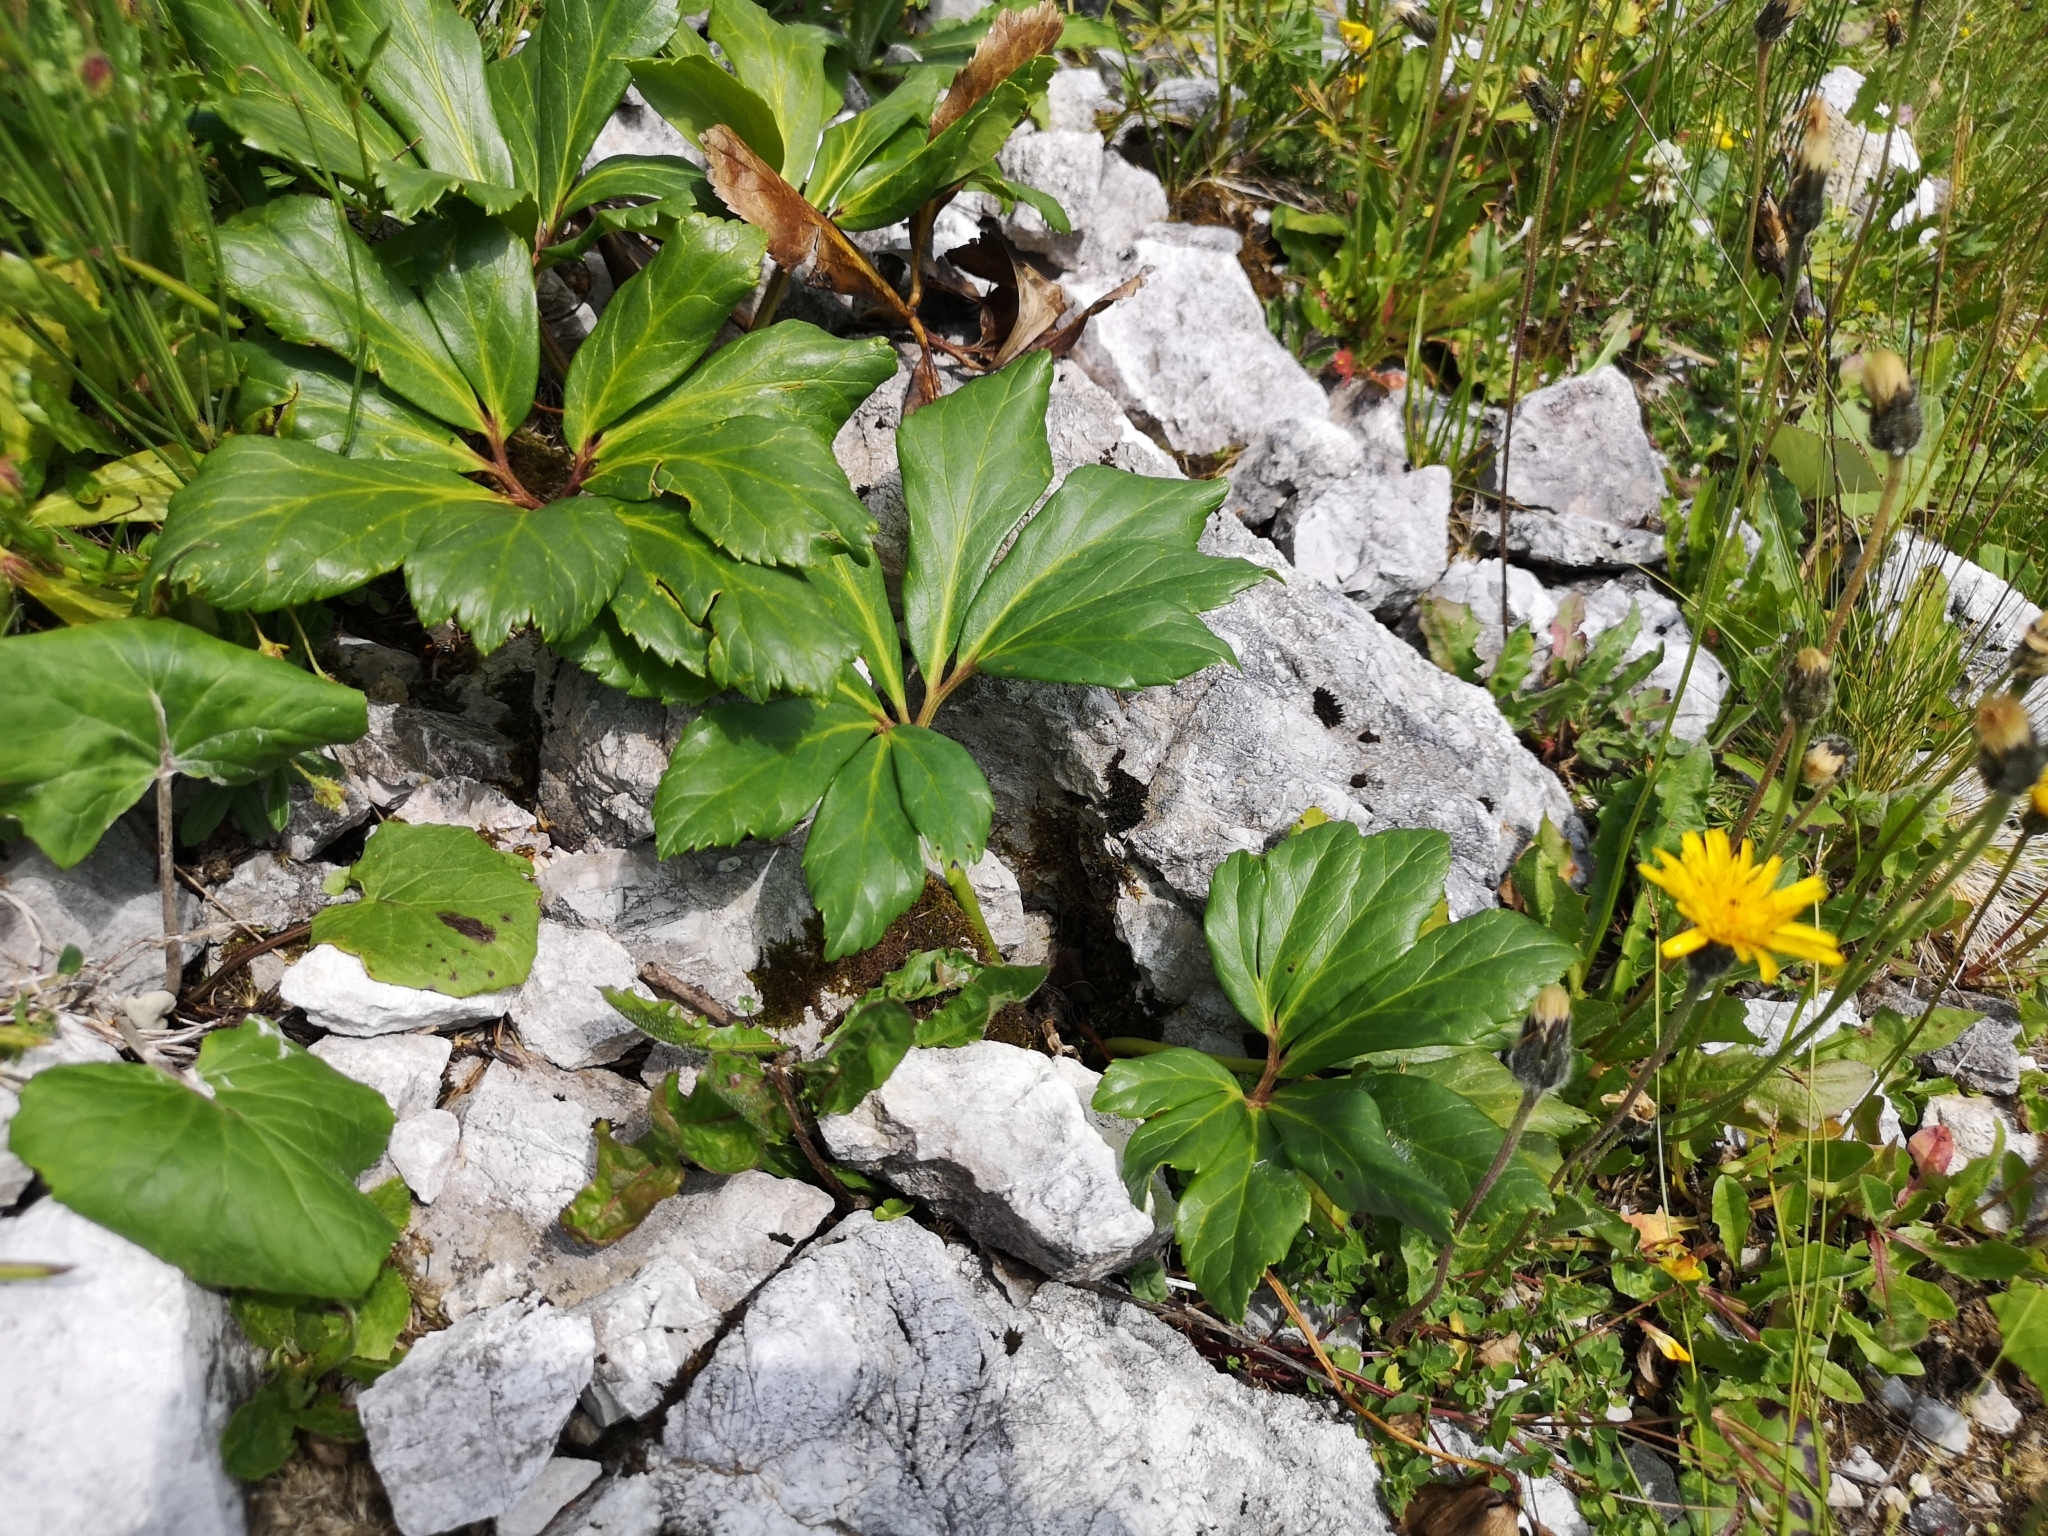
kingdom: Plantae
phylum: Tracheophyta
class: Magnoliopsida
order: Ranunculales
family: Ranunculaceae
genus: Helleborus
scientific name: Helleborus niger
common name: Black hellebore
